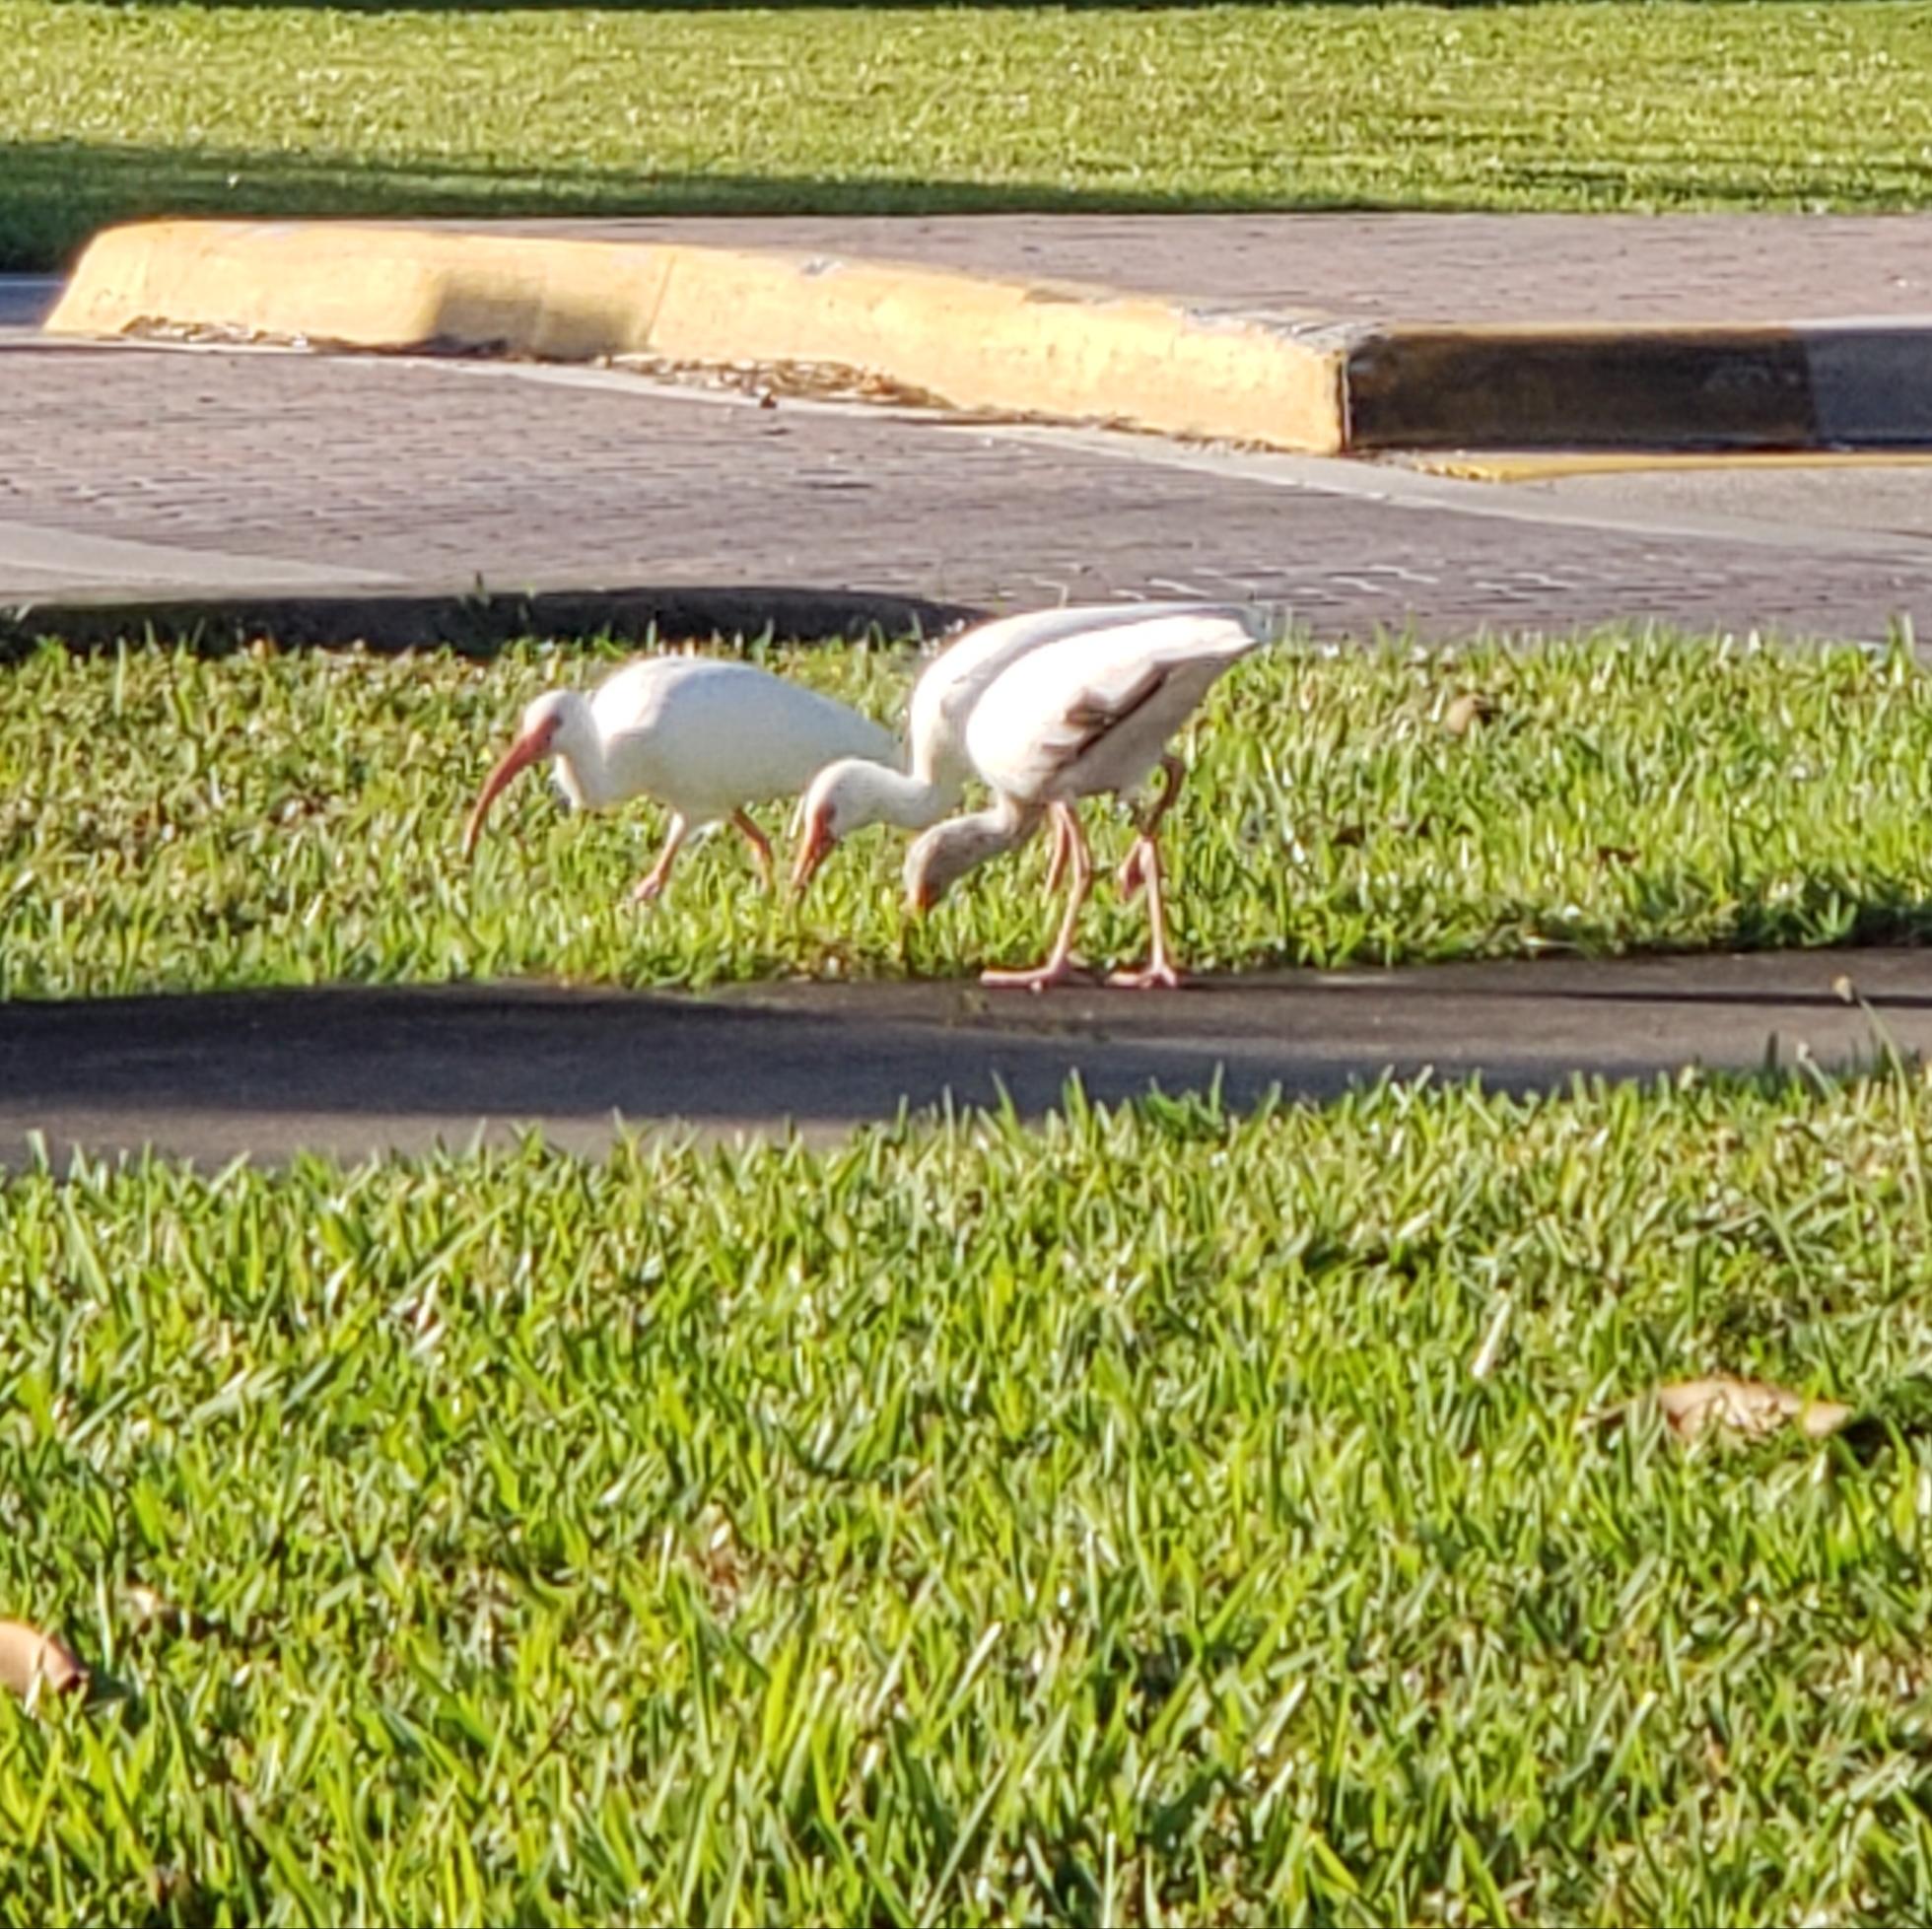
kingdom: Animalia
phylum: Chordata
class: Aves
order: Pelecaniformes
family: Threskiornithidae
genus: Eudocimus
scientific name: Eudocimus albus
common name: White ibis
